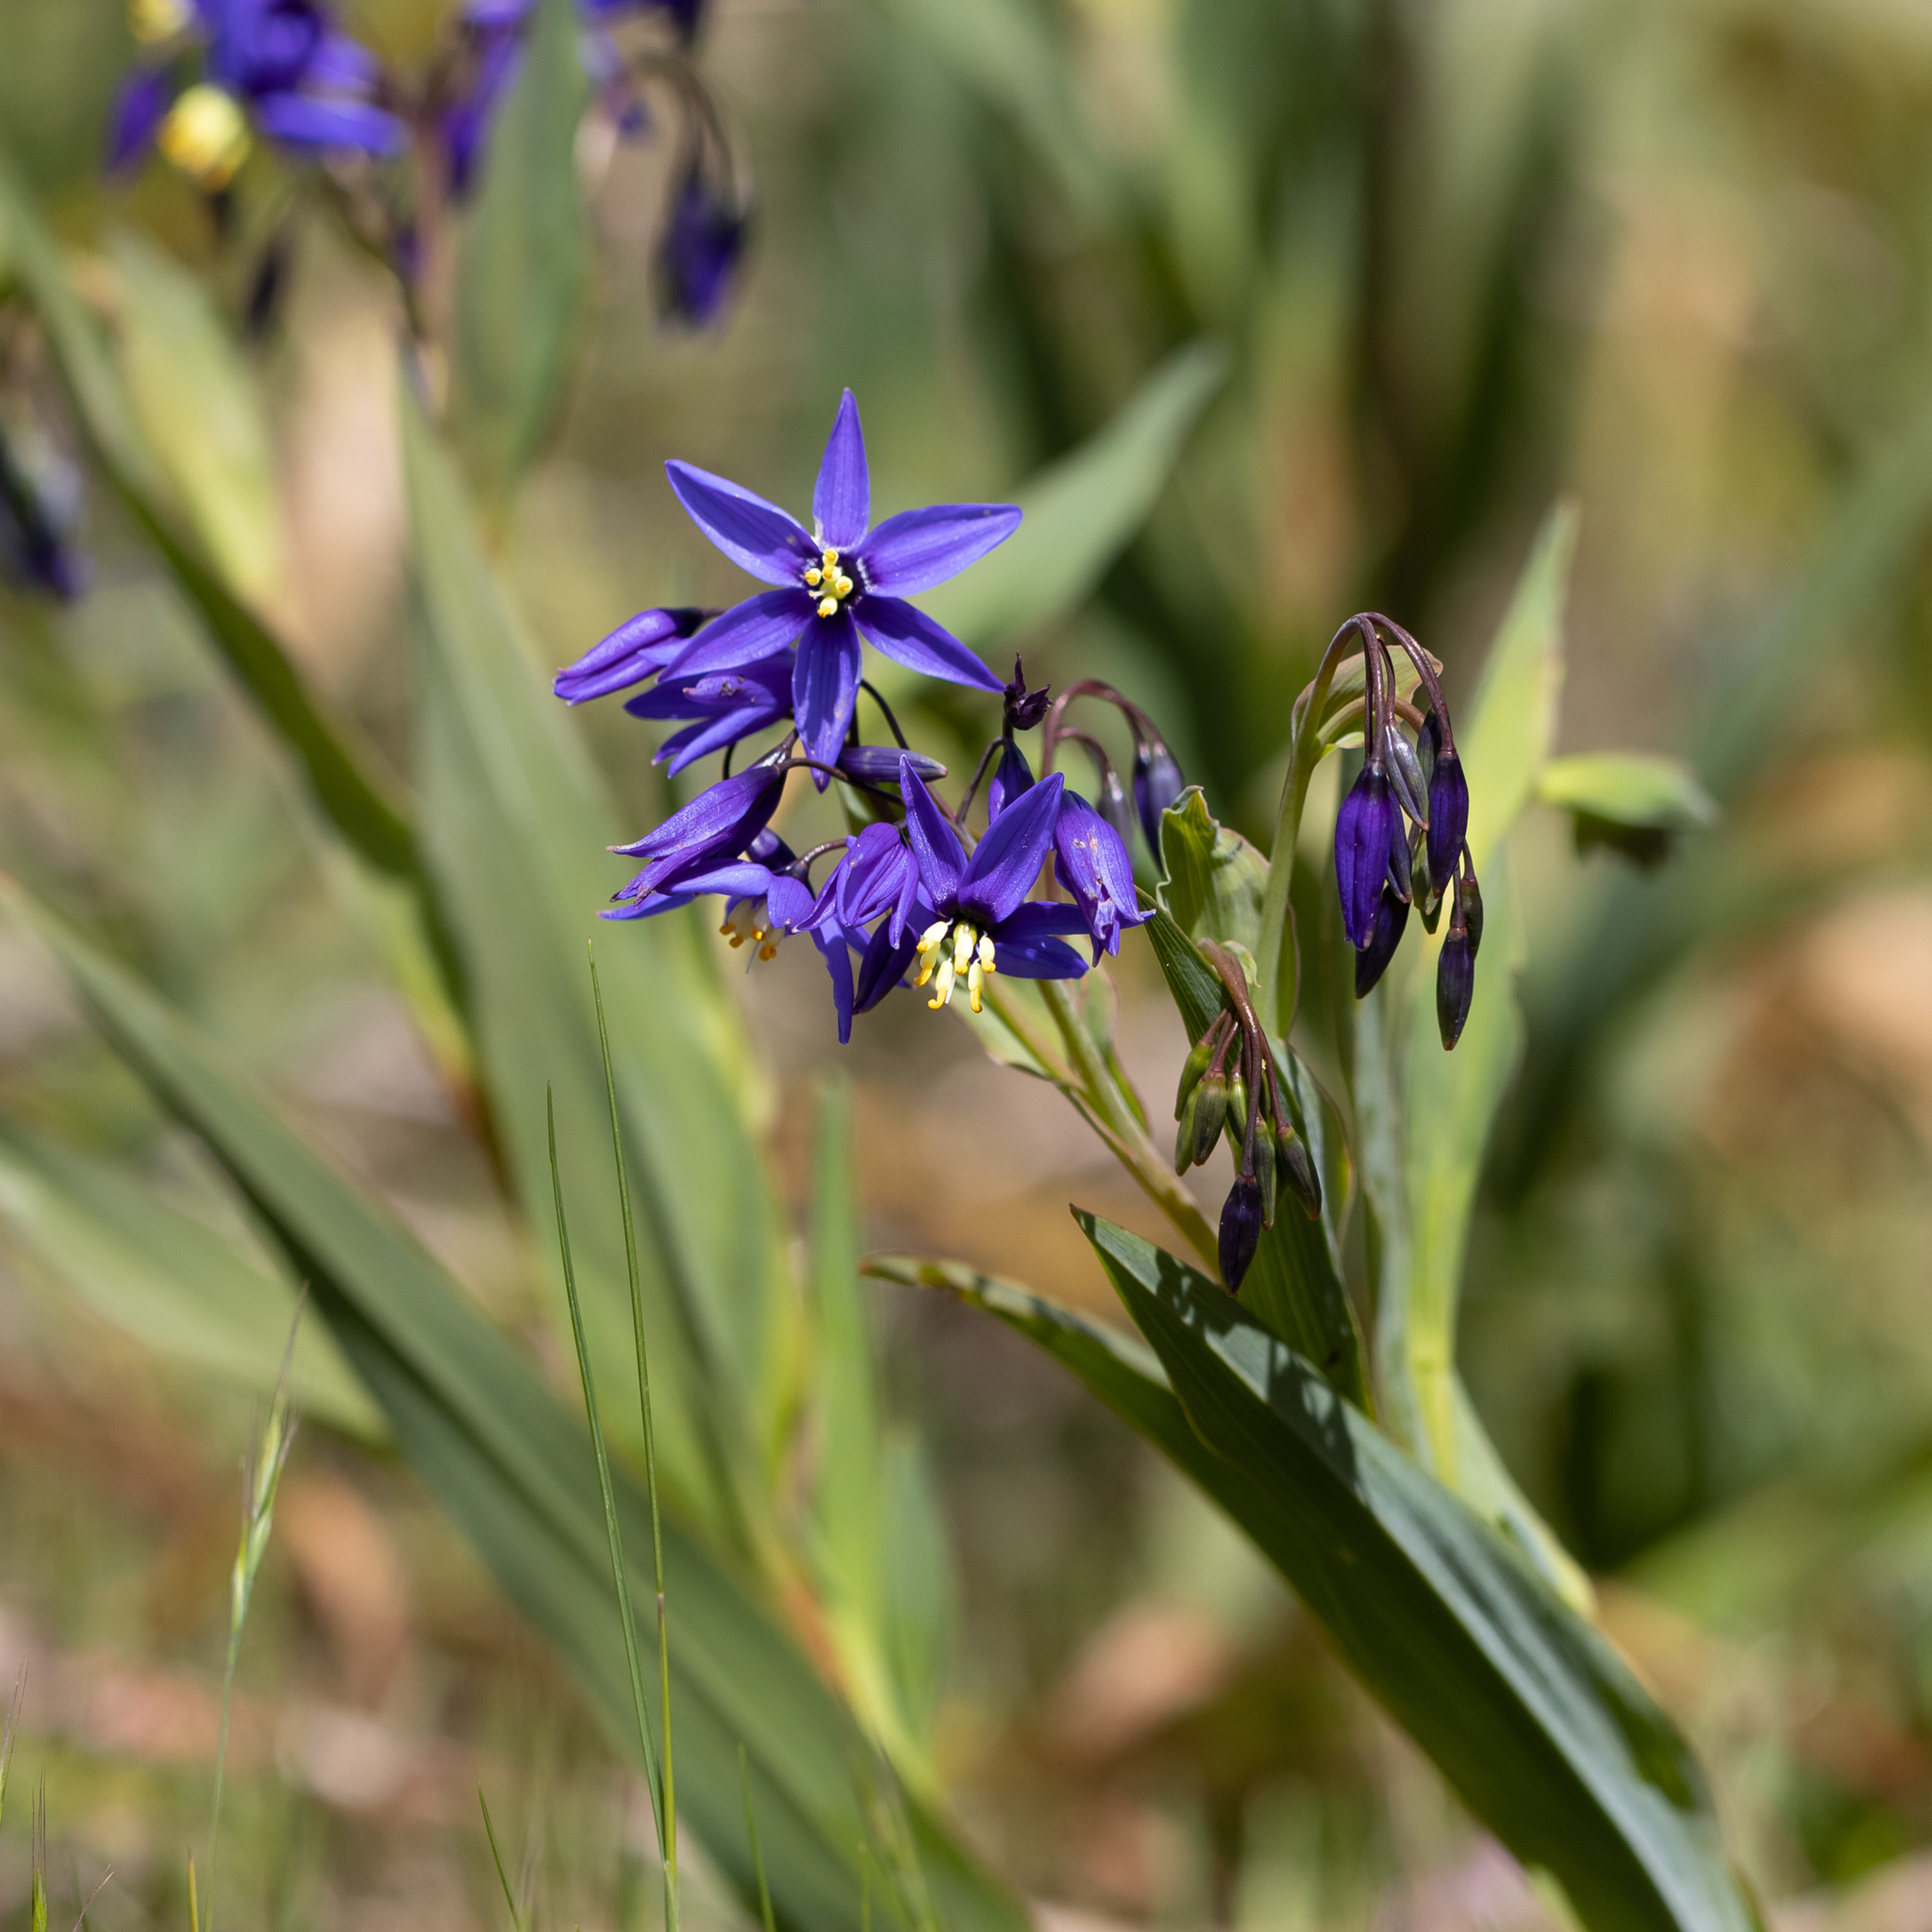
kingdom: Plantae
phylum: Tracheophyta
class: Liliopsida
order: Asparagales
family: Asphodelaceae
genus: Stypandra
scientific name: Stypandra glauca
